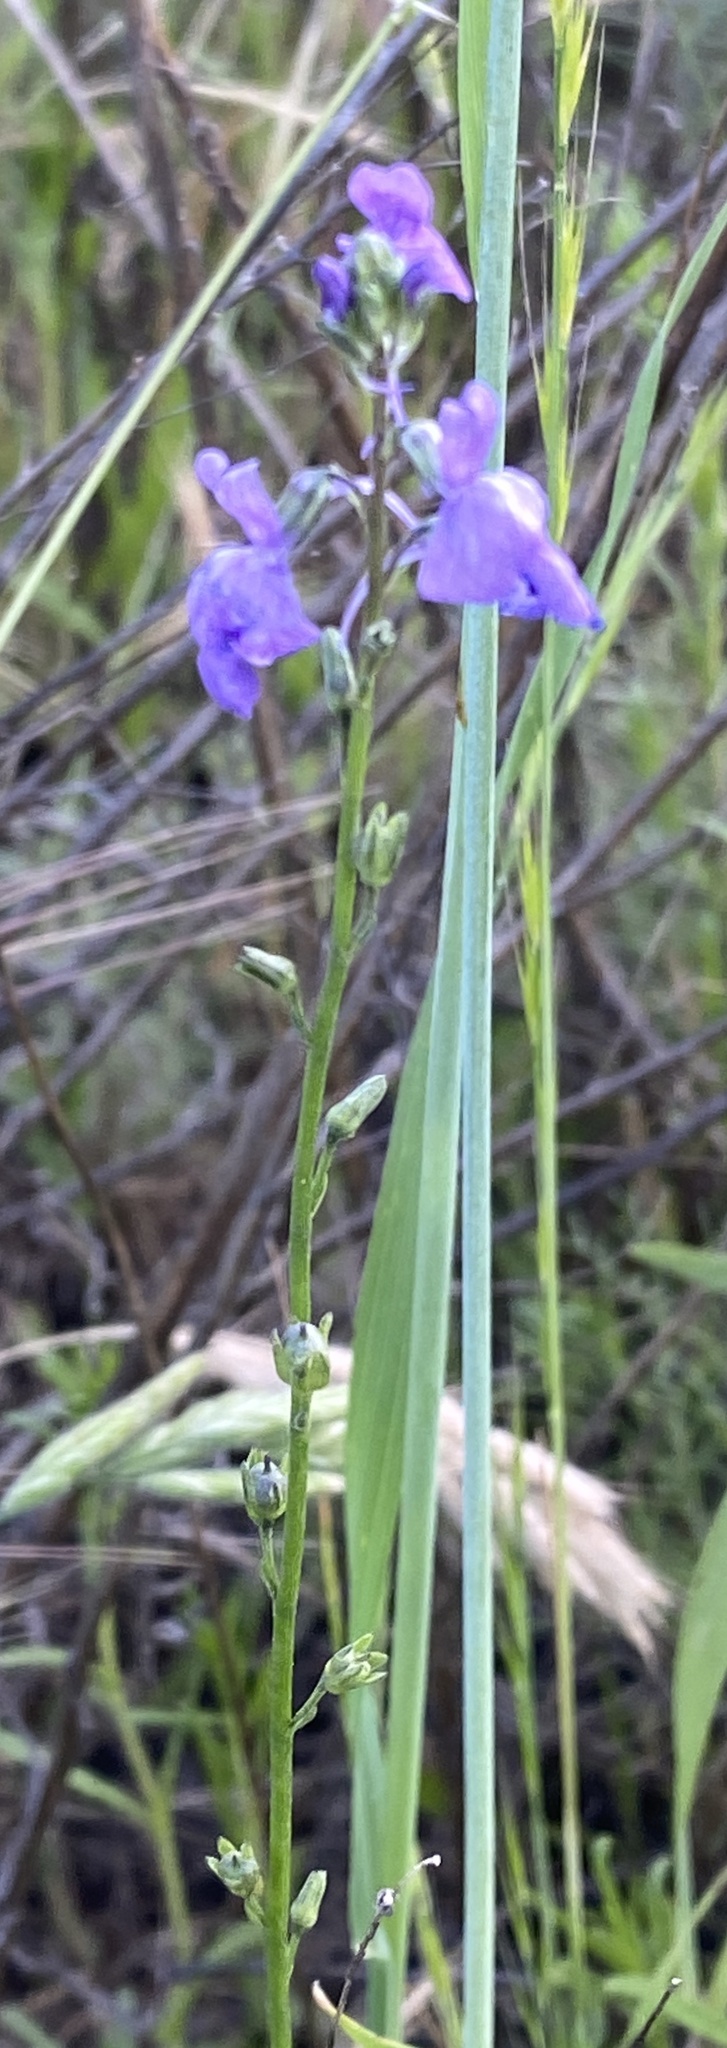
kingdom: Plantae
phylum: Tracheophyta
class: Magnoliopsida
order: Lamiales
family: Plantaginaceae
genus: Nuttallanthus
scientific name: Nuttallanthus texanus
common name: Texas toadflax
